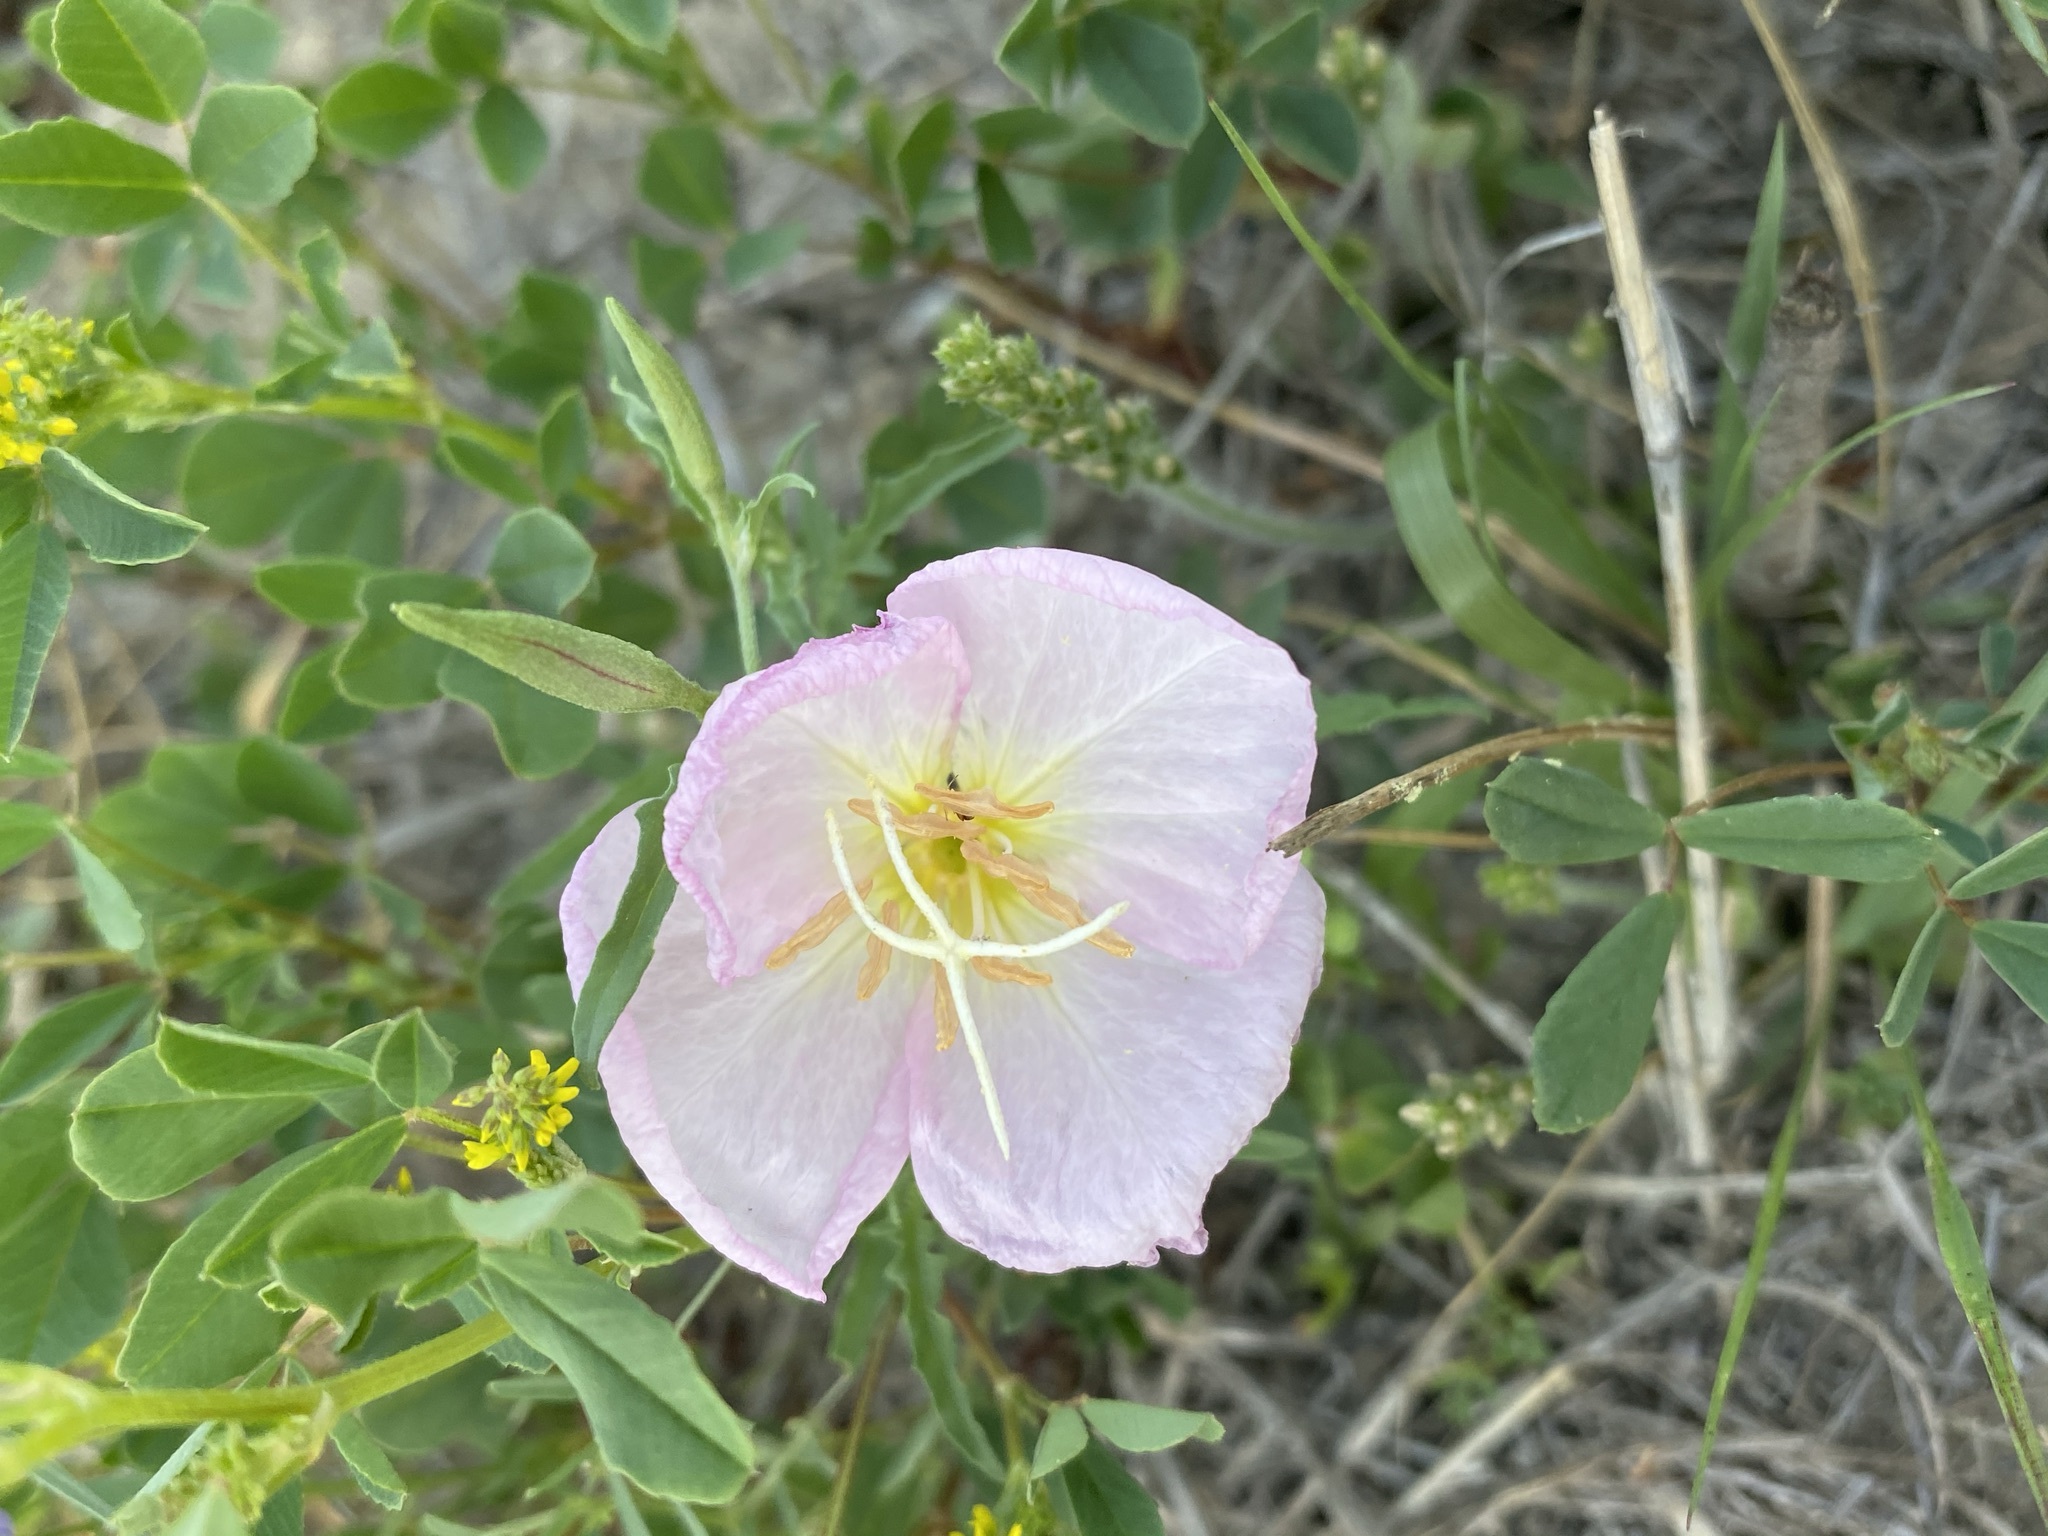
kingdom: Plantae
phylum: Tracheophyta
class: Magnoliopsida
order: Myrtales
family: Onagraceae
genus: Oenothera
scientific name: Oenothera speciosa
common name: White evening-primrose
